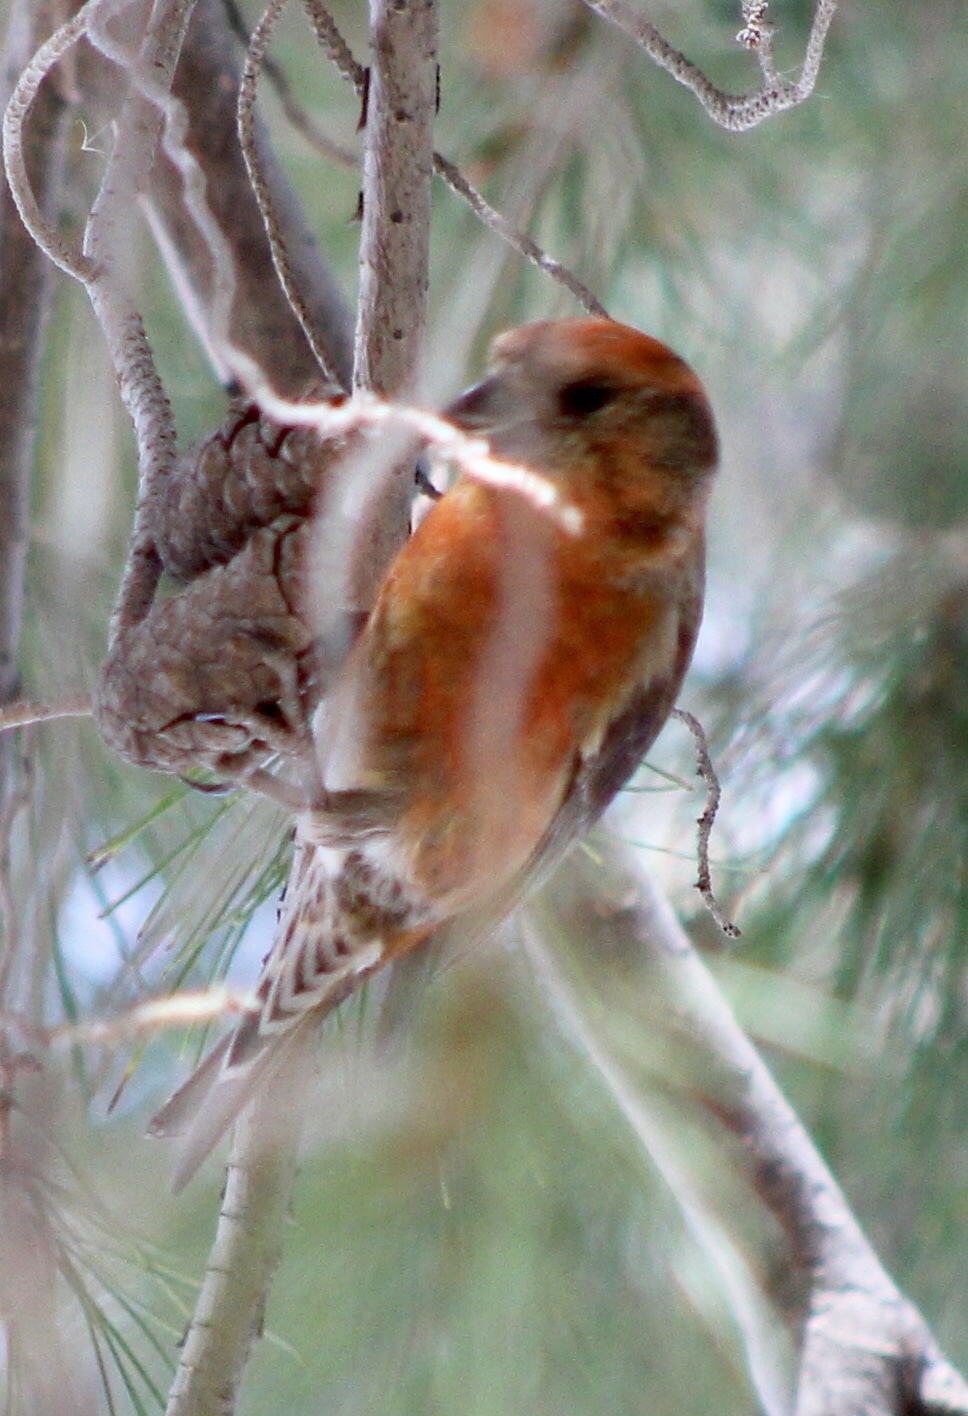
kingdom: Animalia
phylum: Chordata
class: Aves
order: Passeriformes
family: Fringillidae
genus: Loxia
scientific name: Loxia curvirostra
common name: Red crossbill
